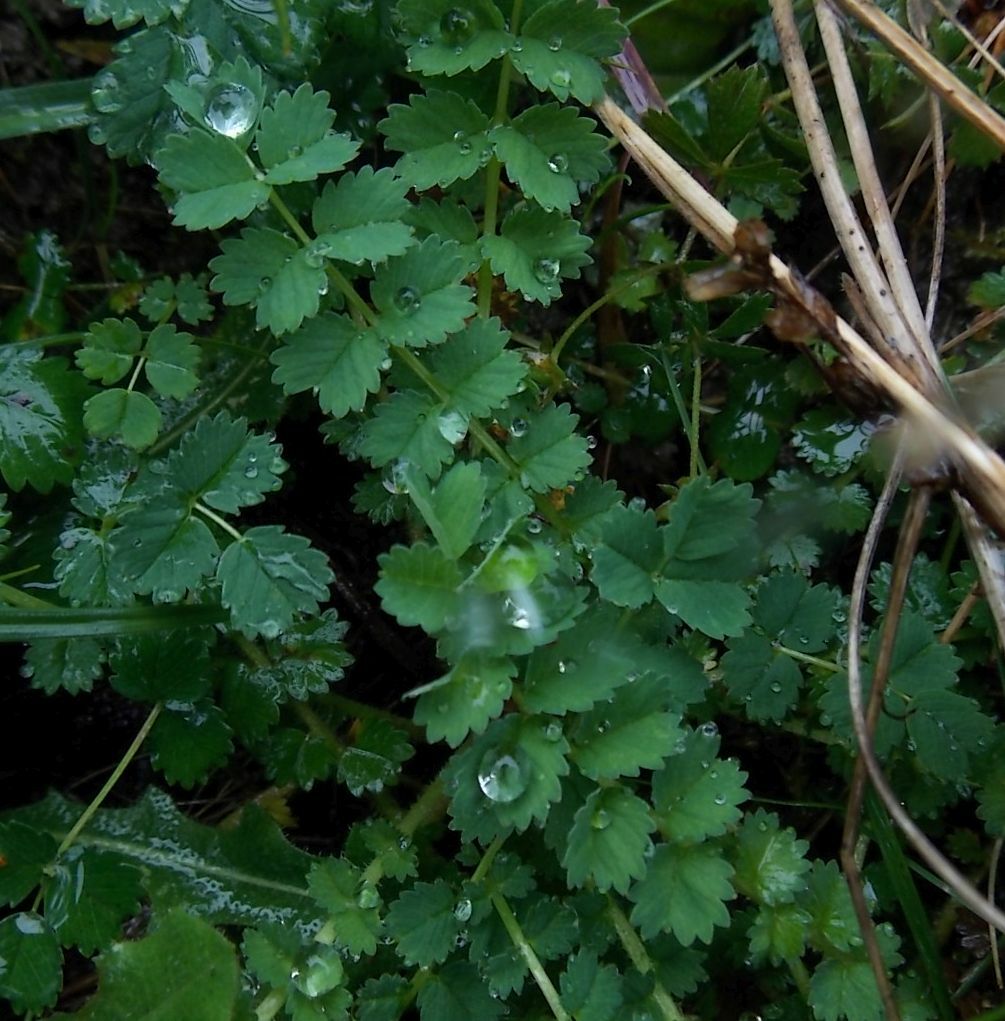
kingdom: Plantae
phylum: Tracheophyta
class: Magnoliopsida
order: Rosales
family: Rosaceae
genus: Poterium
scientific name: Poterium sanguisorba
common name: Salad burnet
